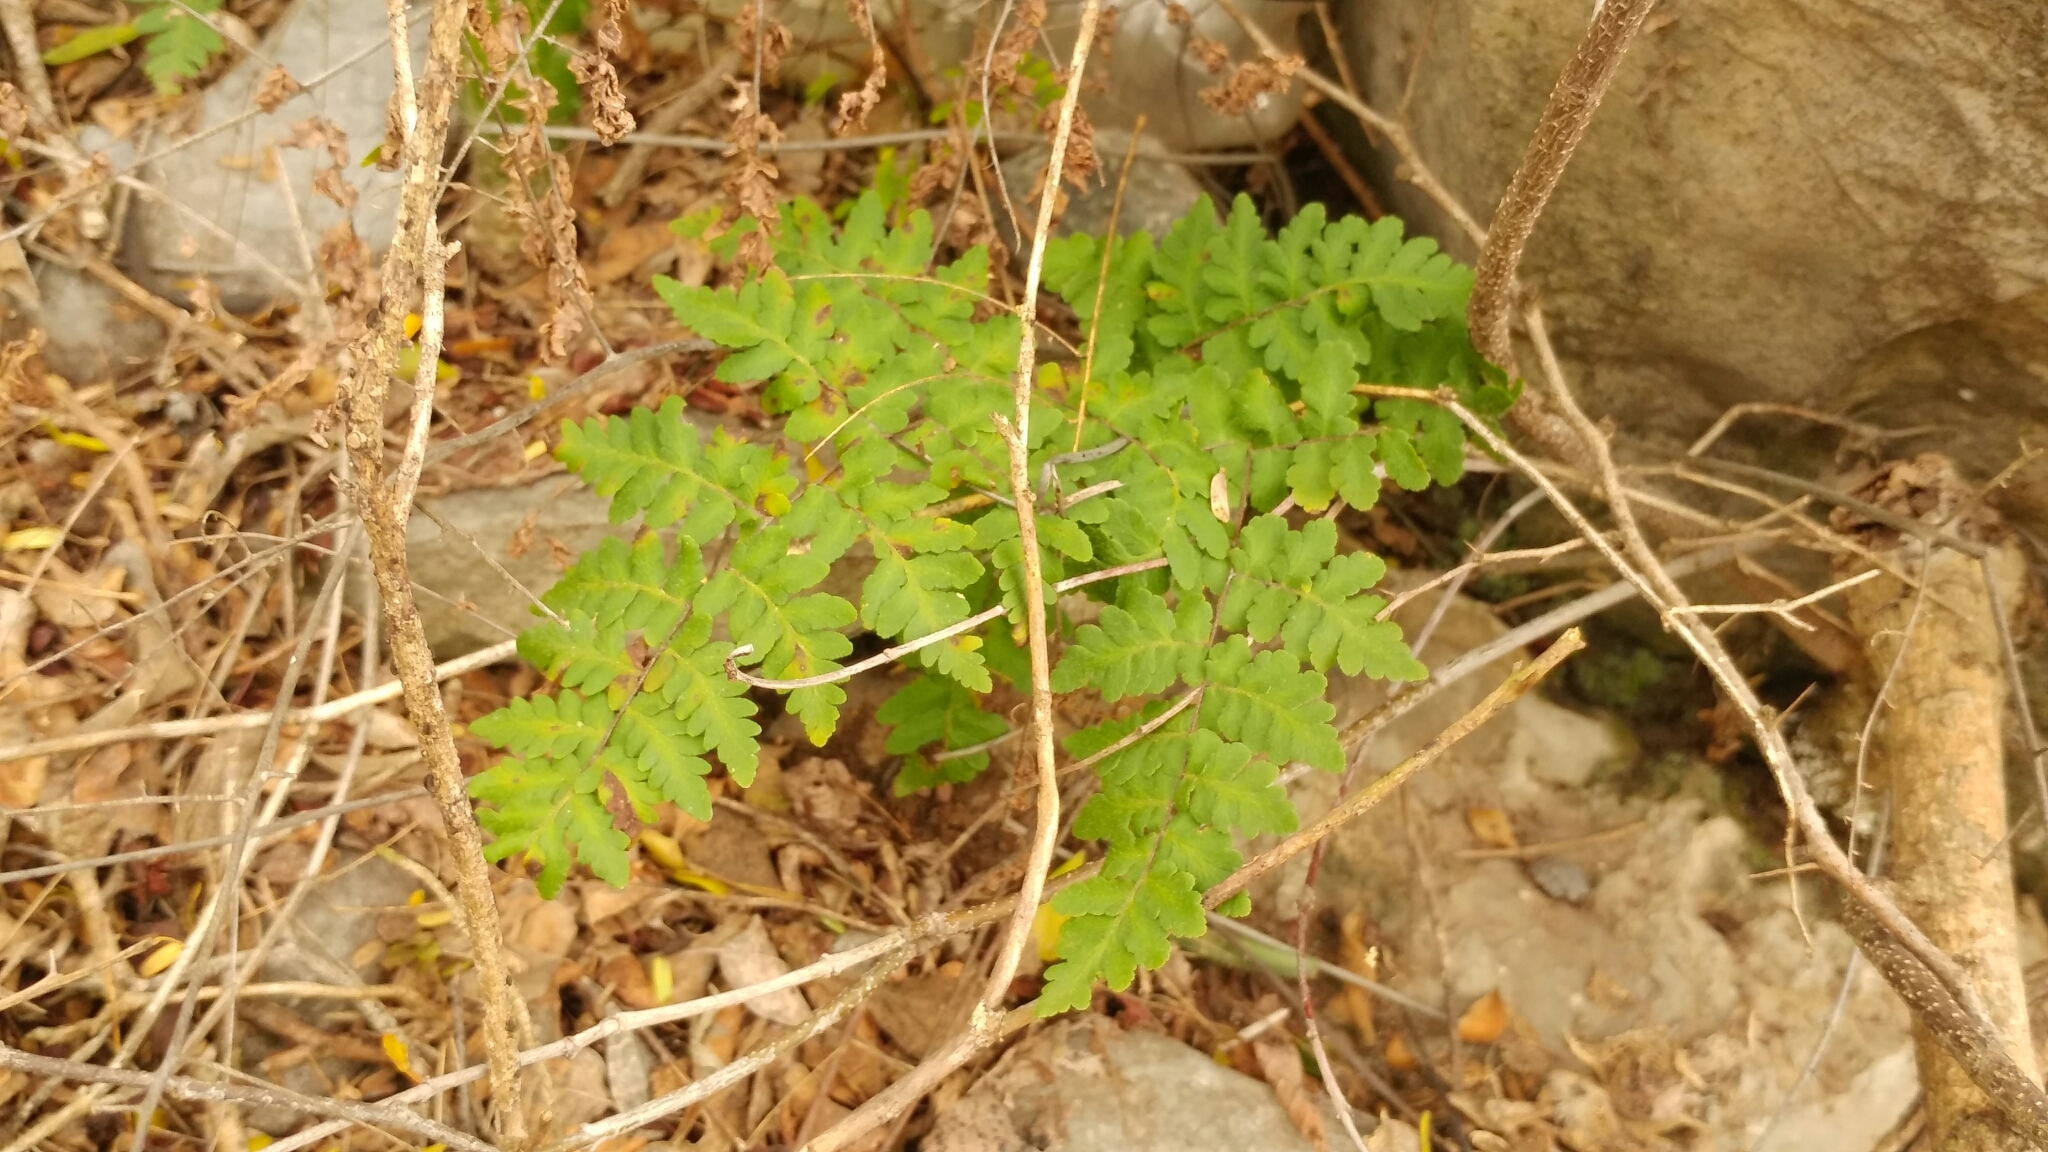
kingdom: Plantae
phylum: Tracheophyta
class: Polypodiopsida
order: Polypodiales
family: Pteridaceae
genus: Myriopteris
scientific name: Myriopteris aemula
